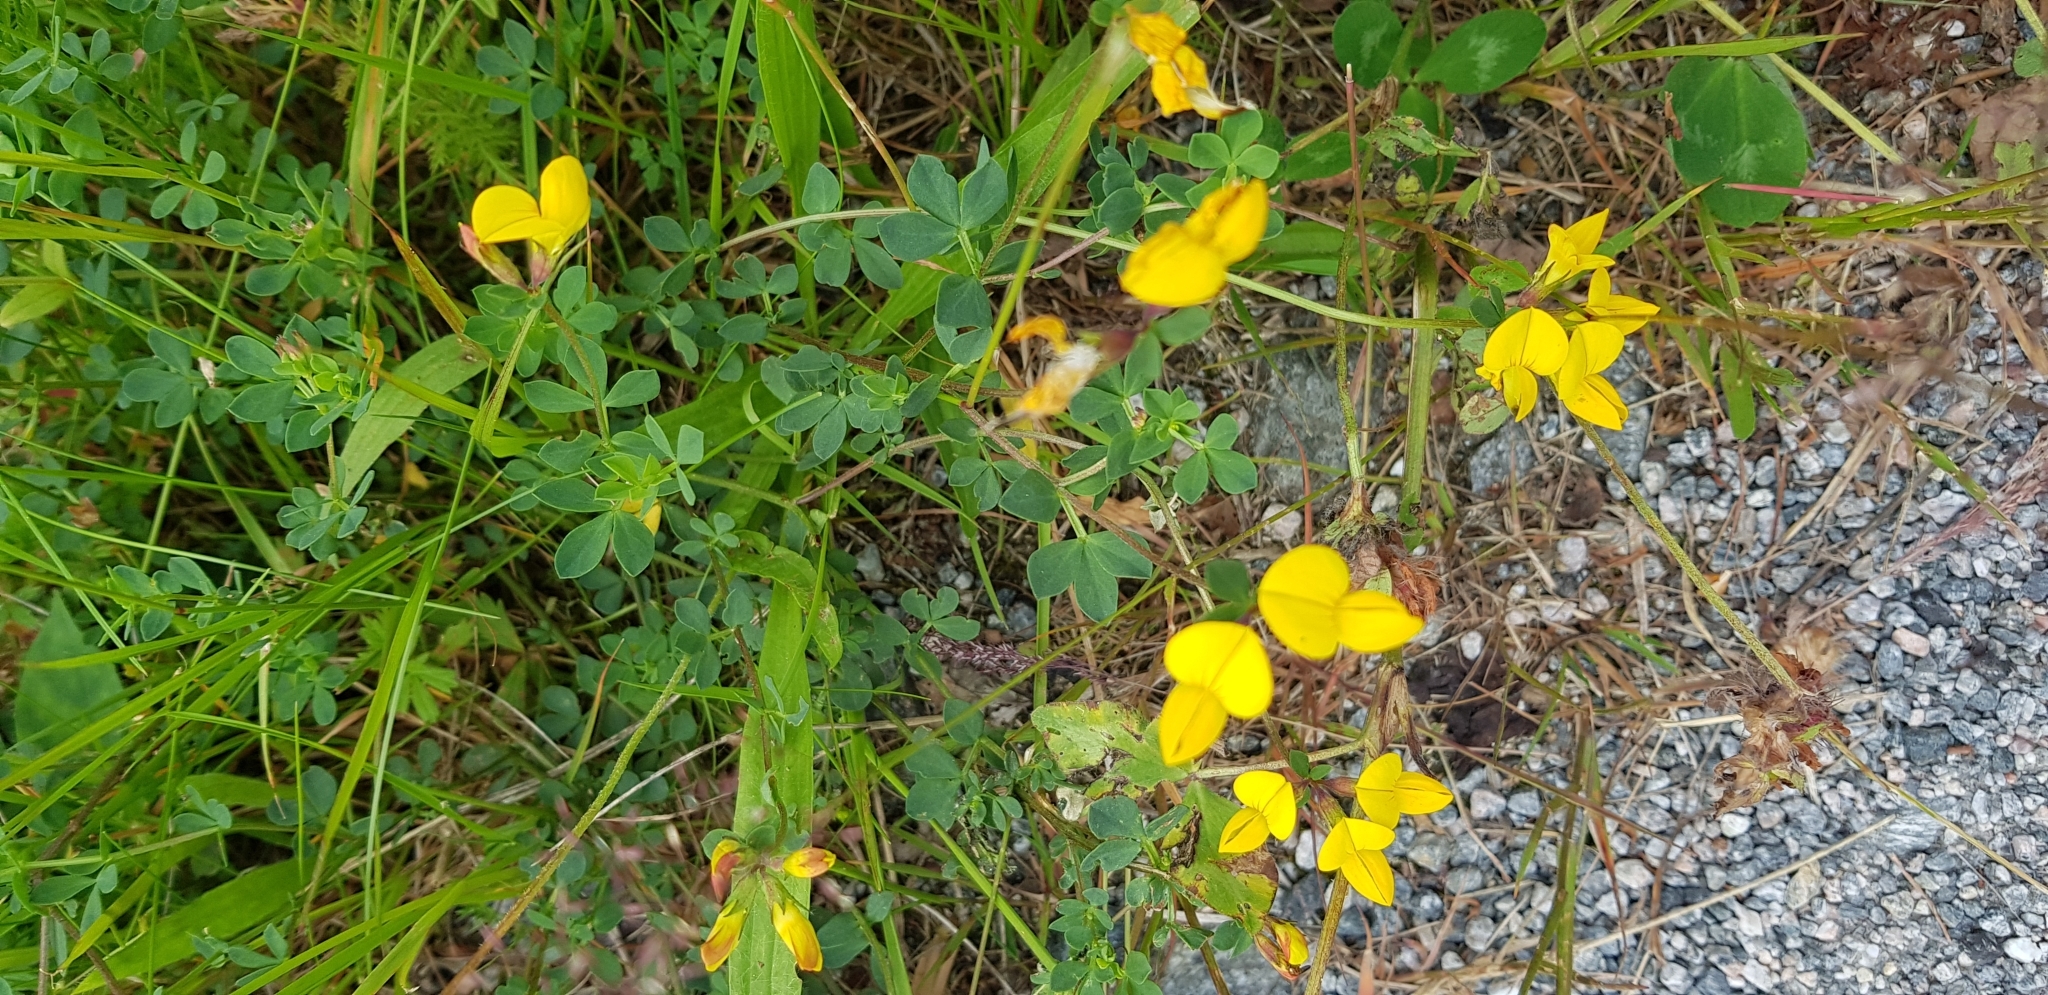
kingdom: Plantae
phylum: Tracheophyta
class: Magnoliopsida
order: Fabales
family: Fabaceae
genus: Lotus
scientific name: Lotus corniculatus
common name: Common bird's-foot-trefoil
